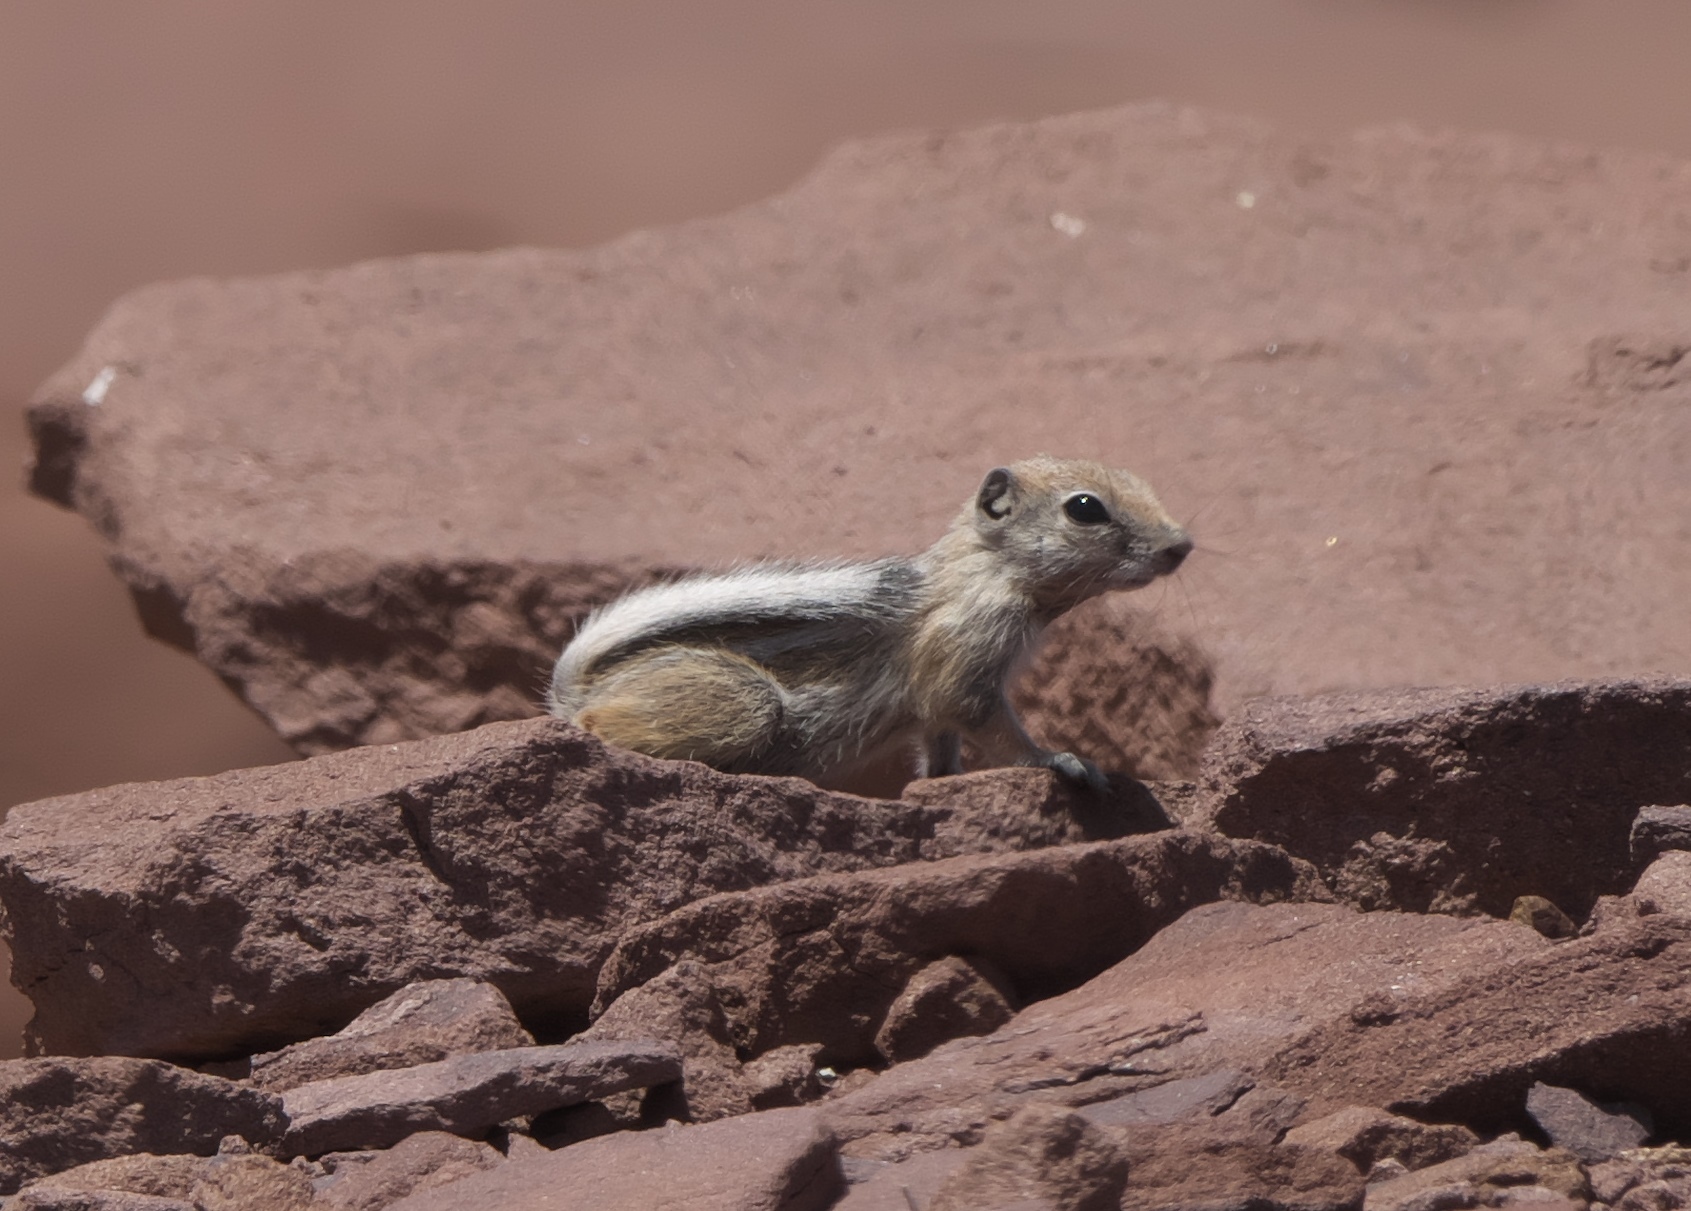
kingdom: Animalia
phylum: Chordata
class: Mammalia
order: Rodentia
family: Sciuridae
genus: Ammospermophilus
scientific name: Ammospermophilus leucurus
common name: White-tailed antelope squirrel
